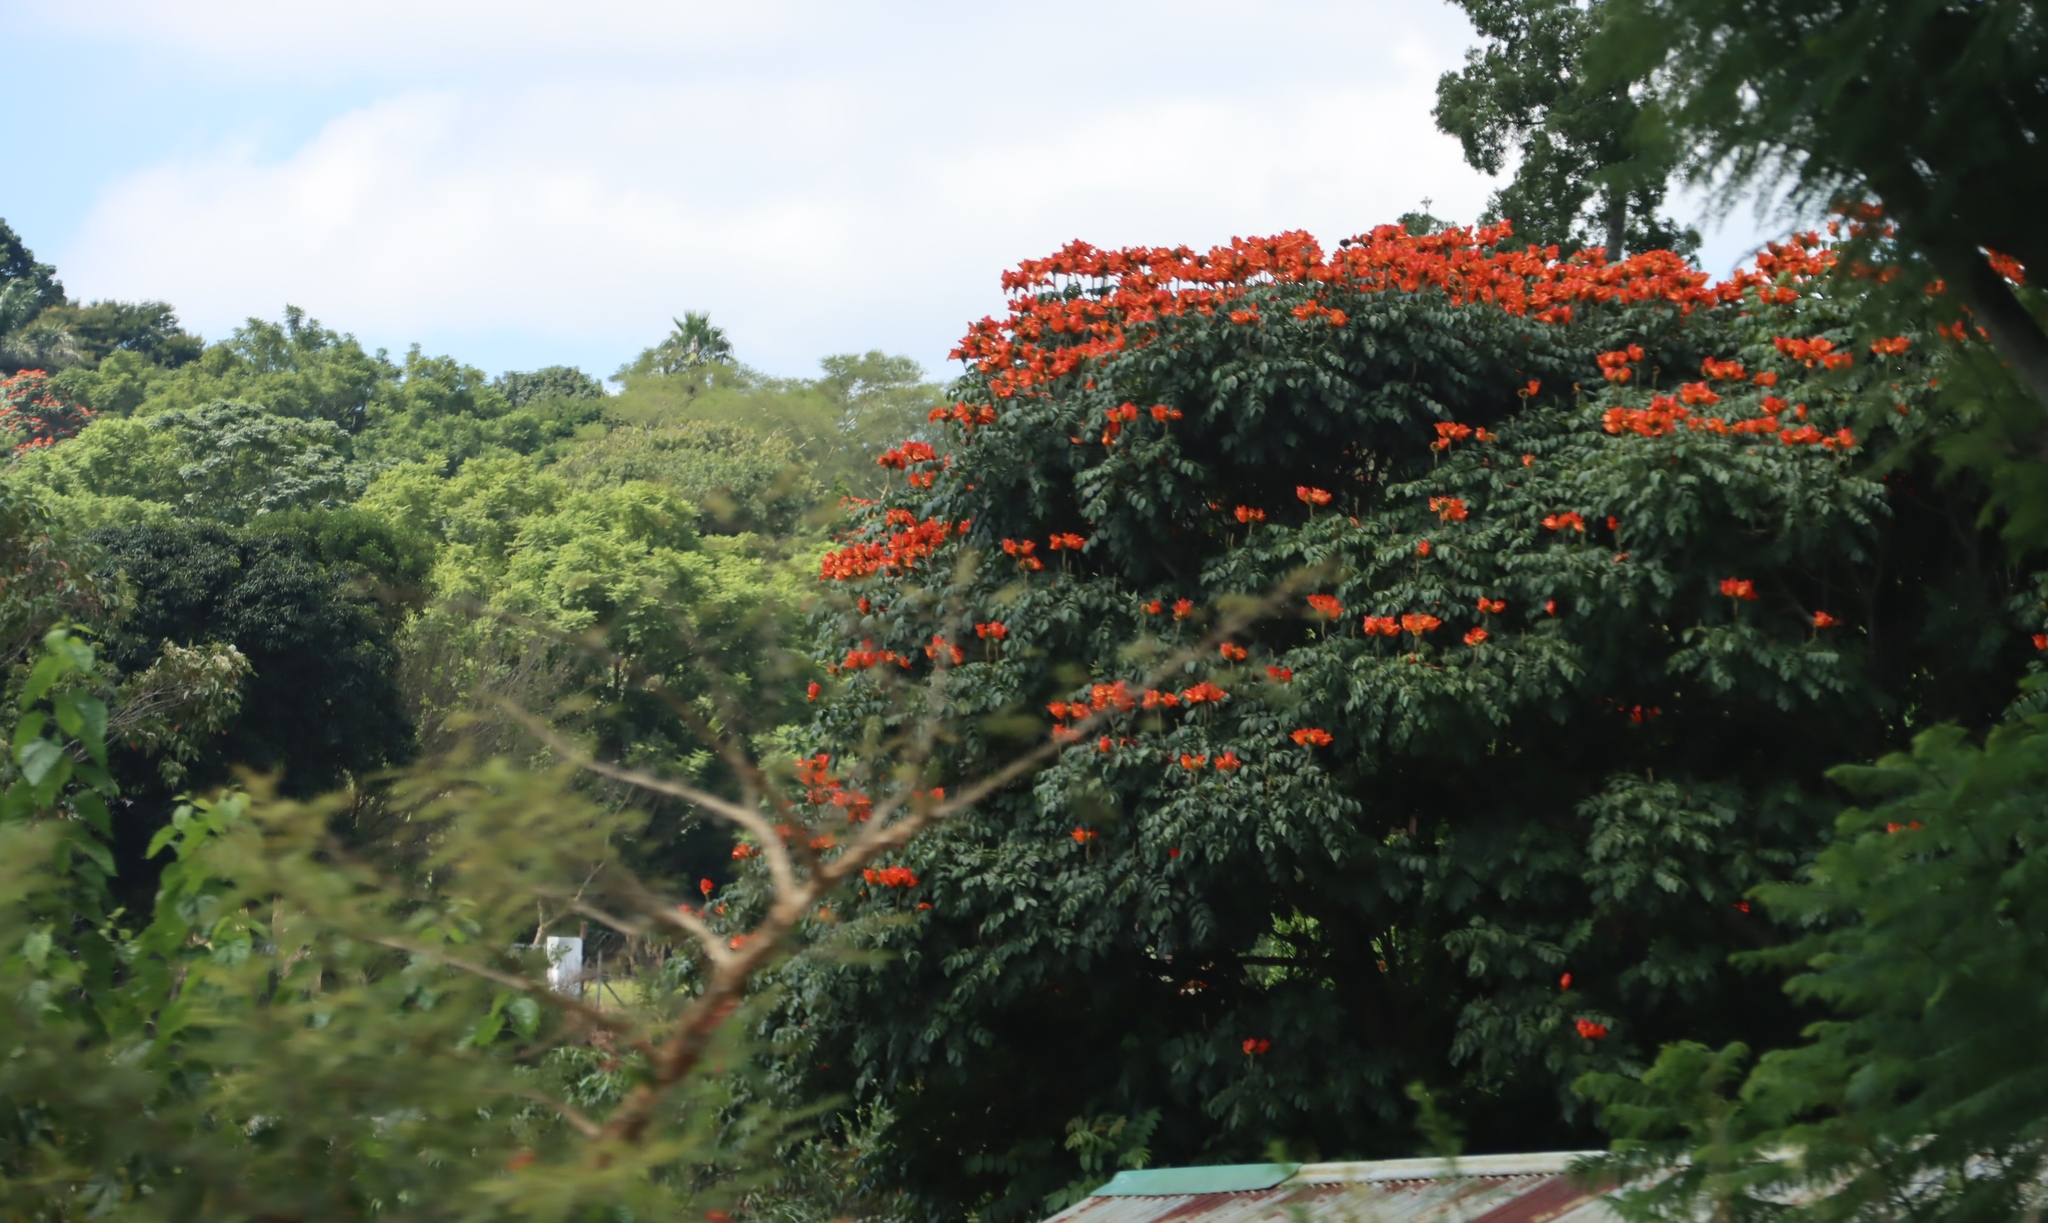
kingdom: Plantae
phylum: Tracheophyta
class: Magnoliopsida
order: Lamiales
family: Bignoniaceae
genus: Spathodea
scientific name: Spathodea campanulata
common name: African tuliptree
